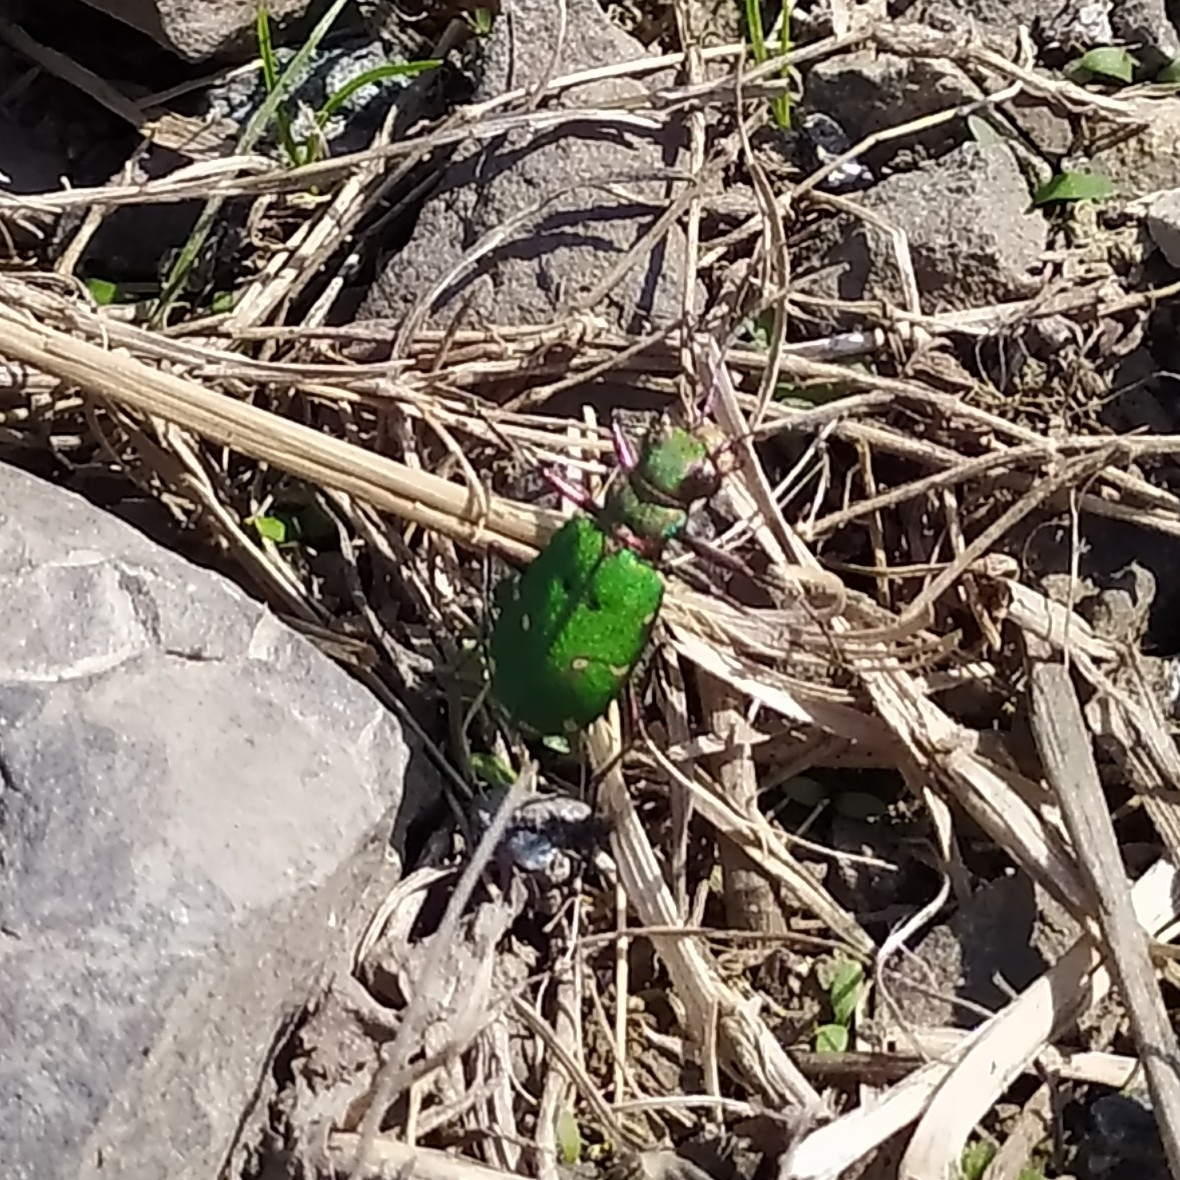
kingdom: Animalia
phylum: Arthropoda
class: Insecta
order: Coleoptera
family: Carabidae
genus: Cicindela
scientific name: Cicindela campestris
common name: Common tiger beetle
